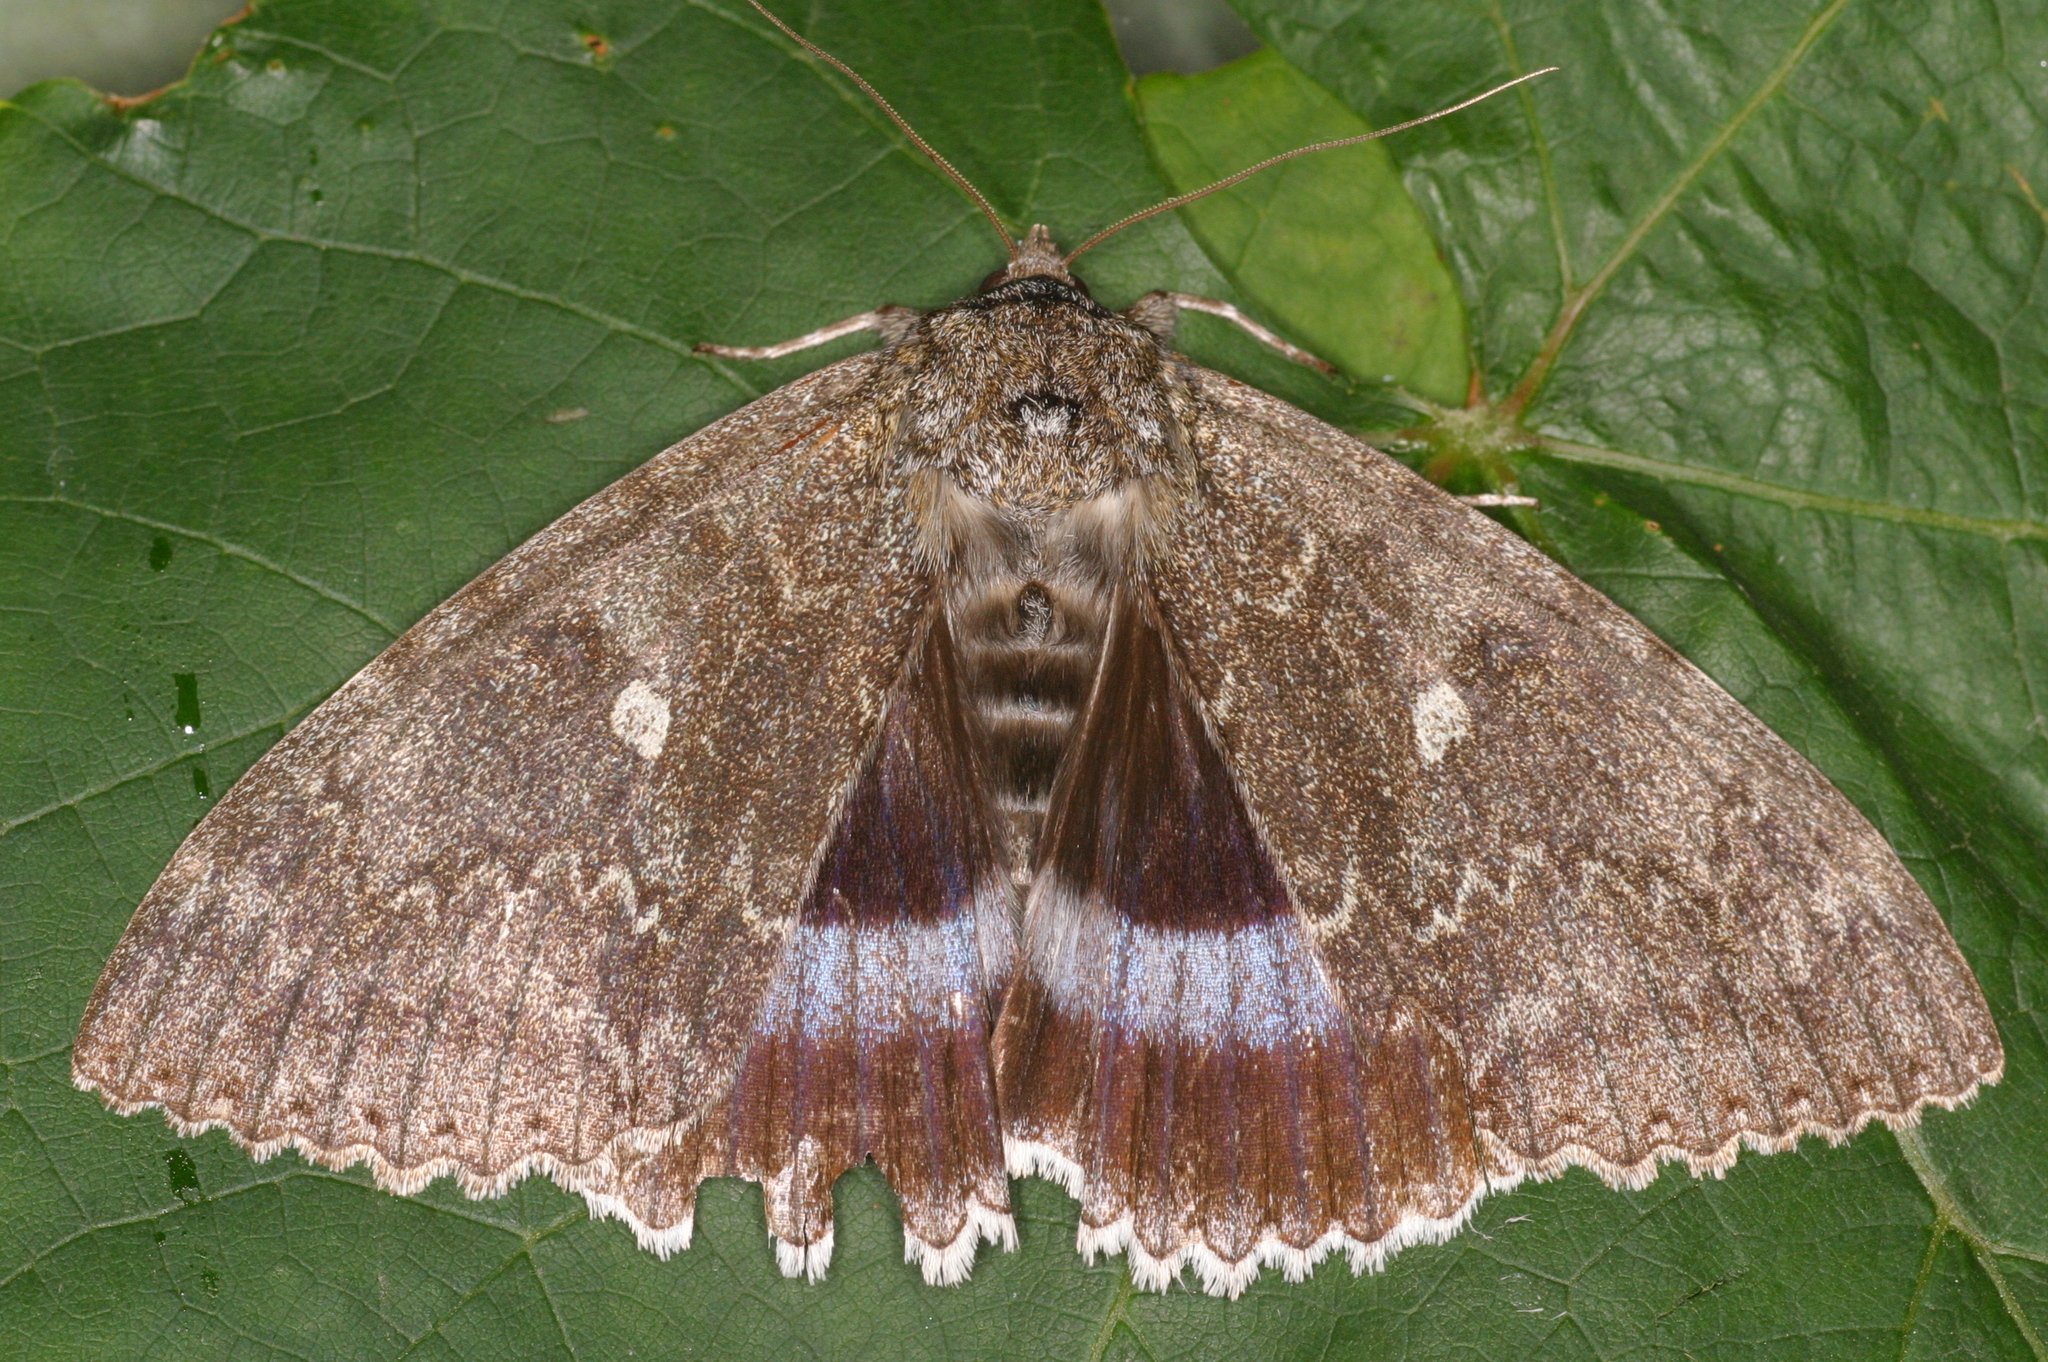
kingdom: Animalia
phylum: Arthropoda
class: Insecta
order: Lepidoptera
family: Erebidae
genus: Catocala
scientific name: Catocala fraxini
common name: Clifden nonpareil
